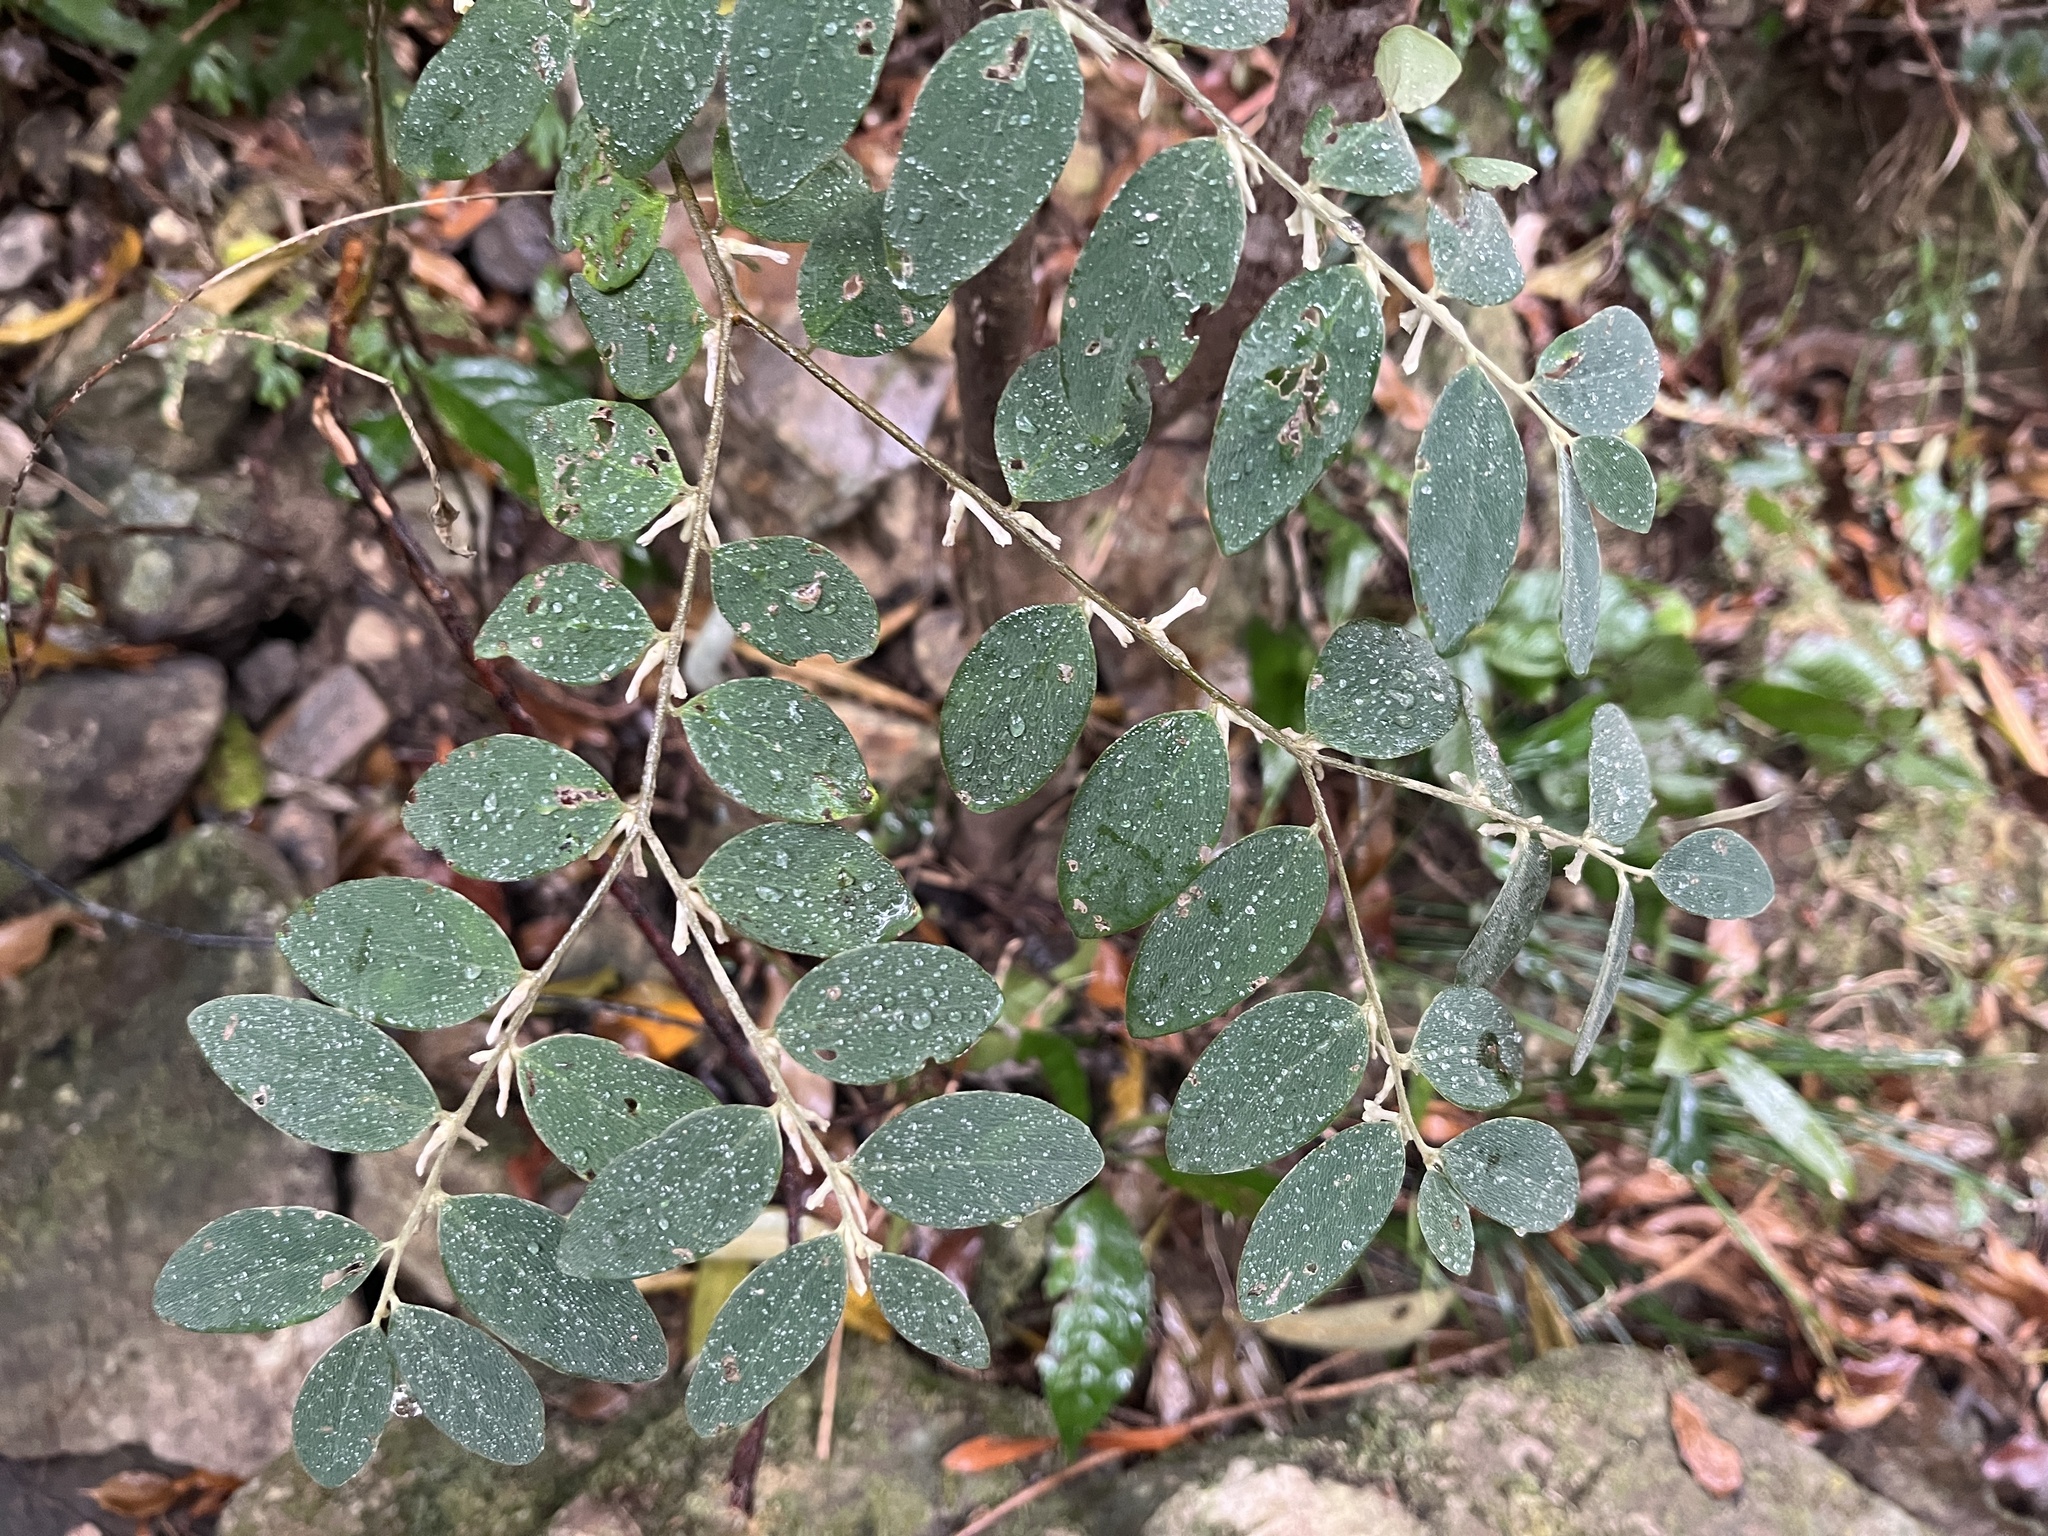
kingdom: Plantae
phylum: Tracheophyta
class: Magnoliopsida
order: Malvales
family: Thymelaeaceae
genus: Daphne
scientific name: Daphne championii
